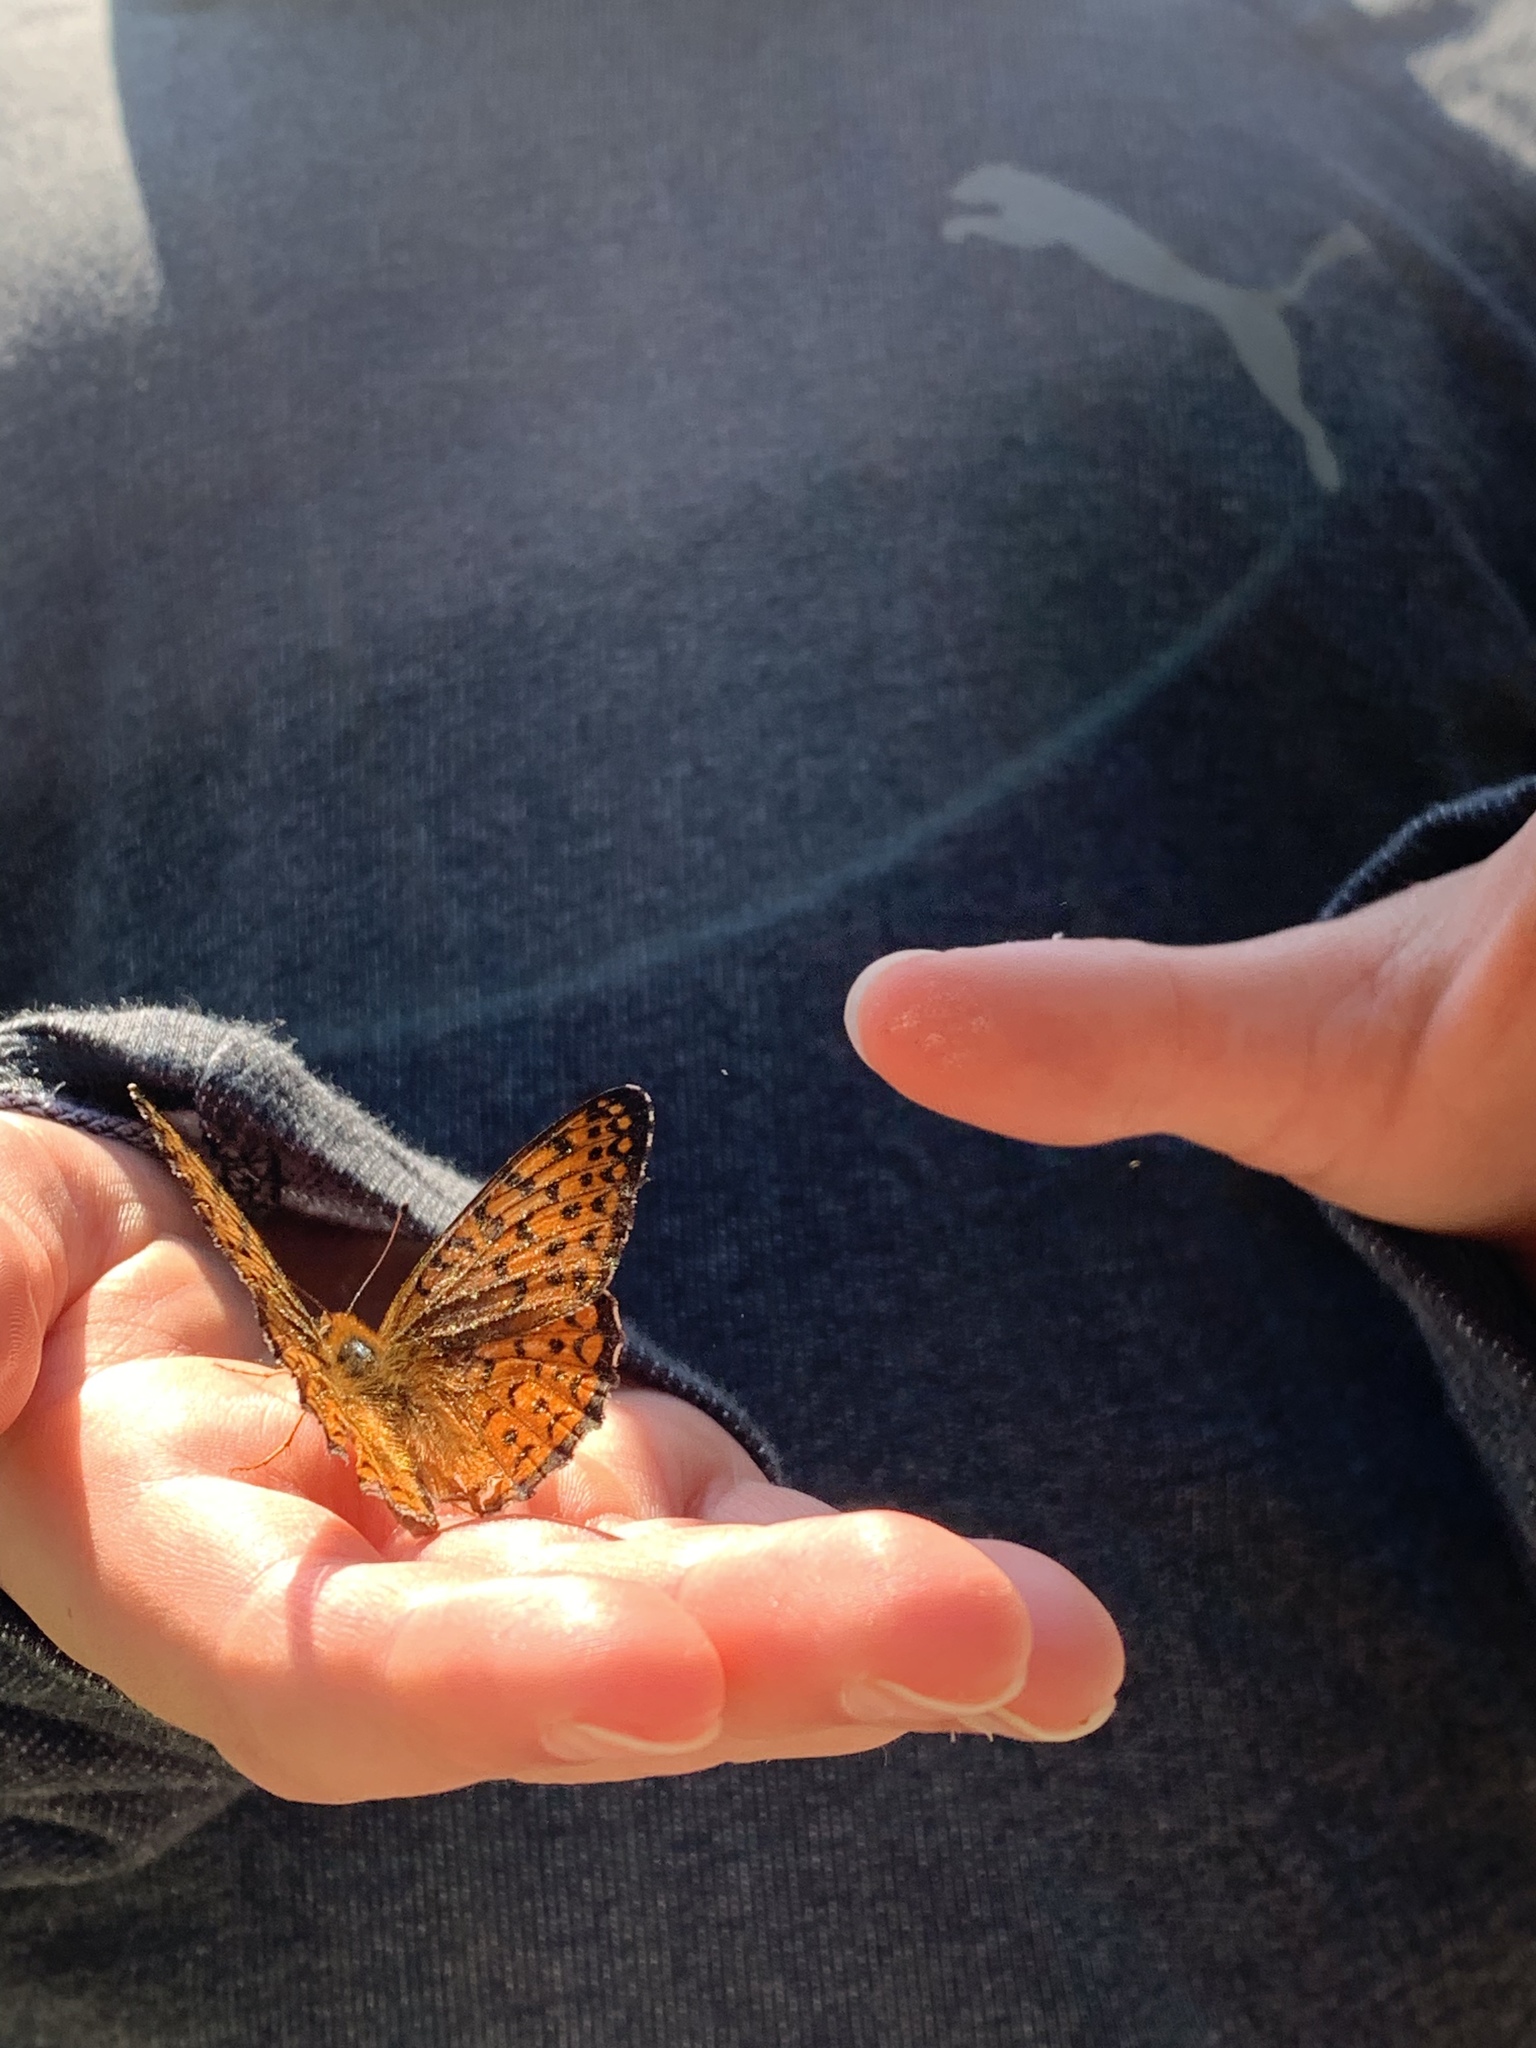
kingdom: Animalia
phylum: Arthropoda
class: Insecta
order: Lepidoptera
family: Nymphalidae
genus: Speyeria
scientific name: Speyeria atlantis
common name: Atlantis fritillary
